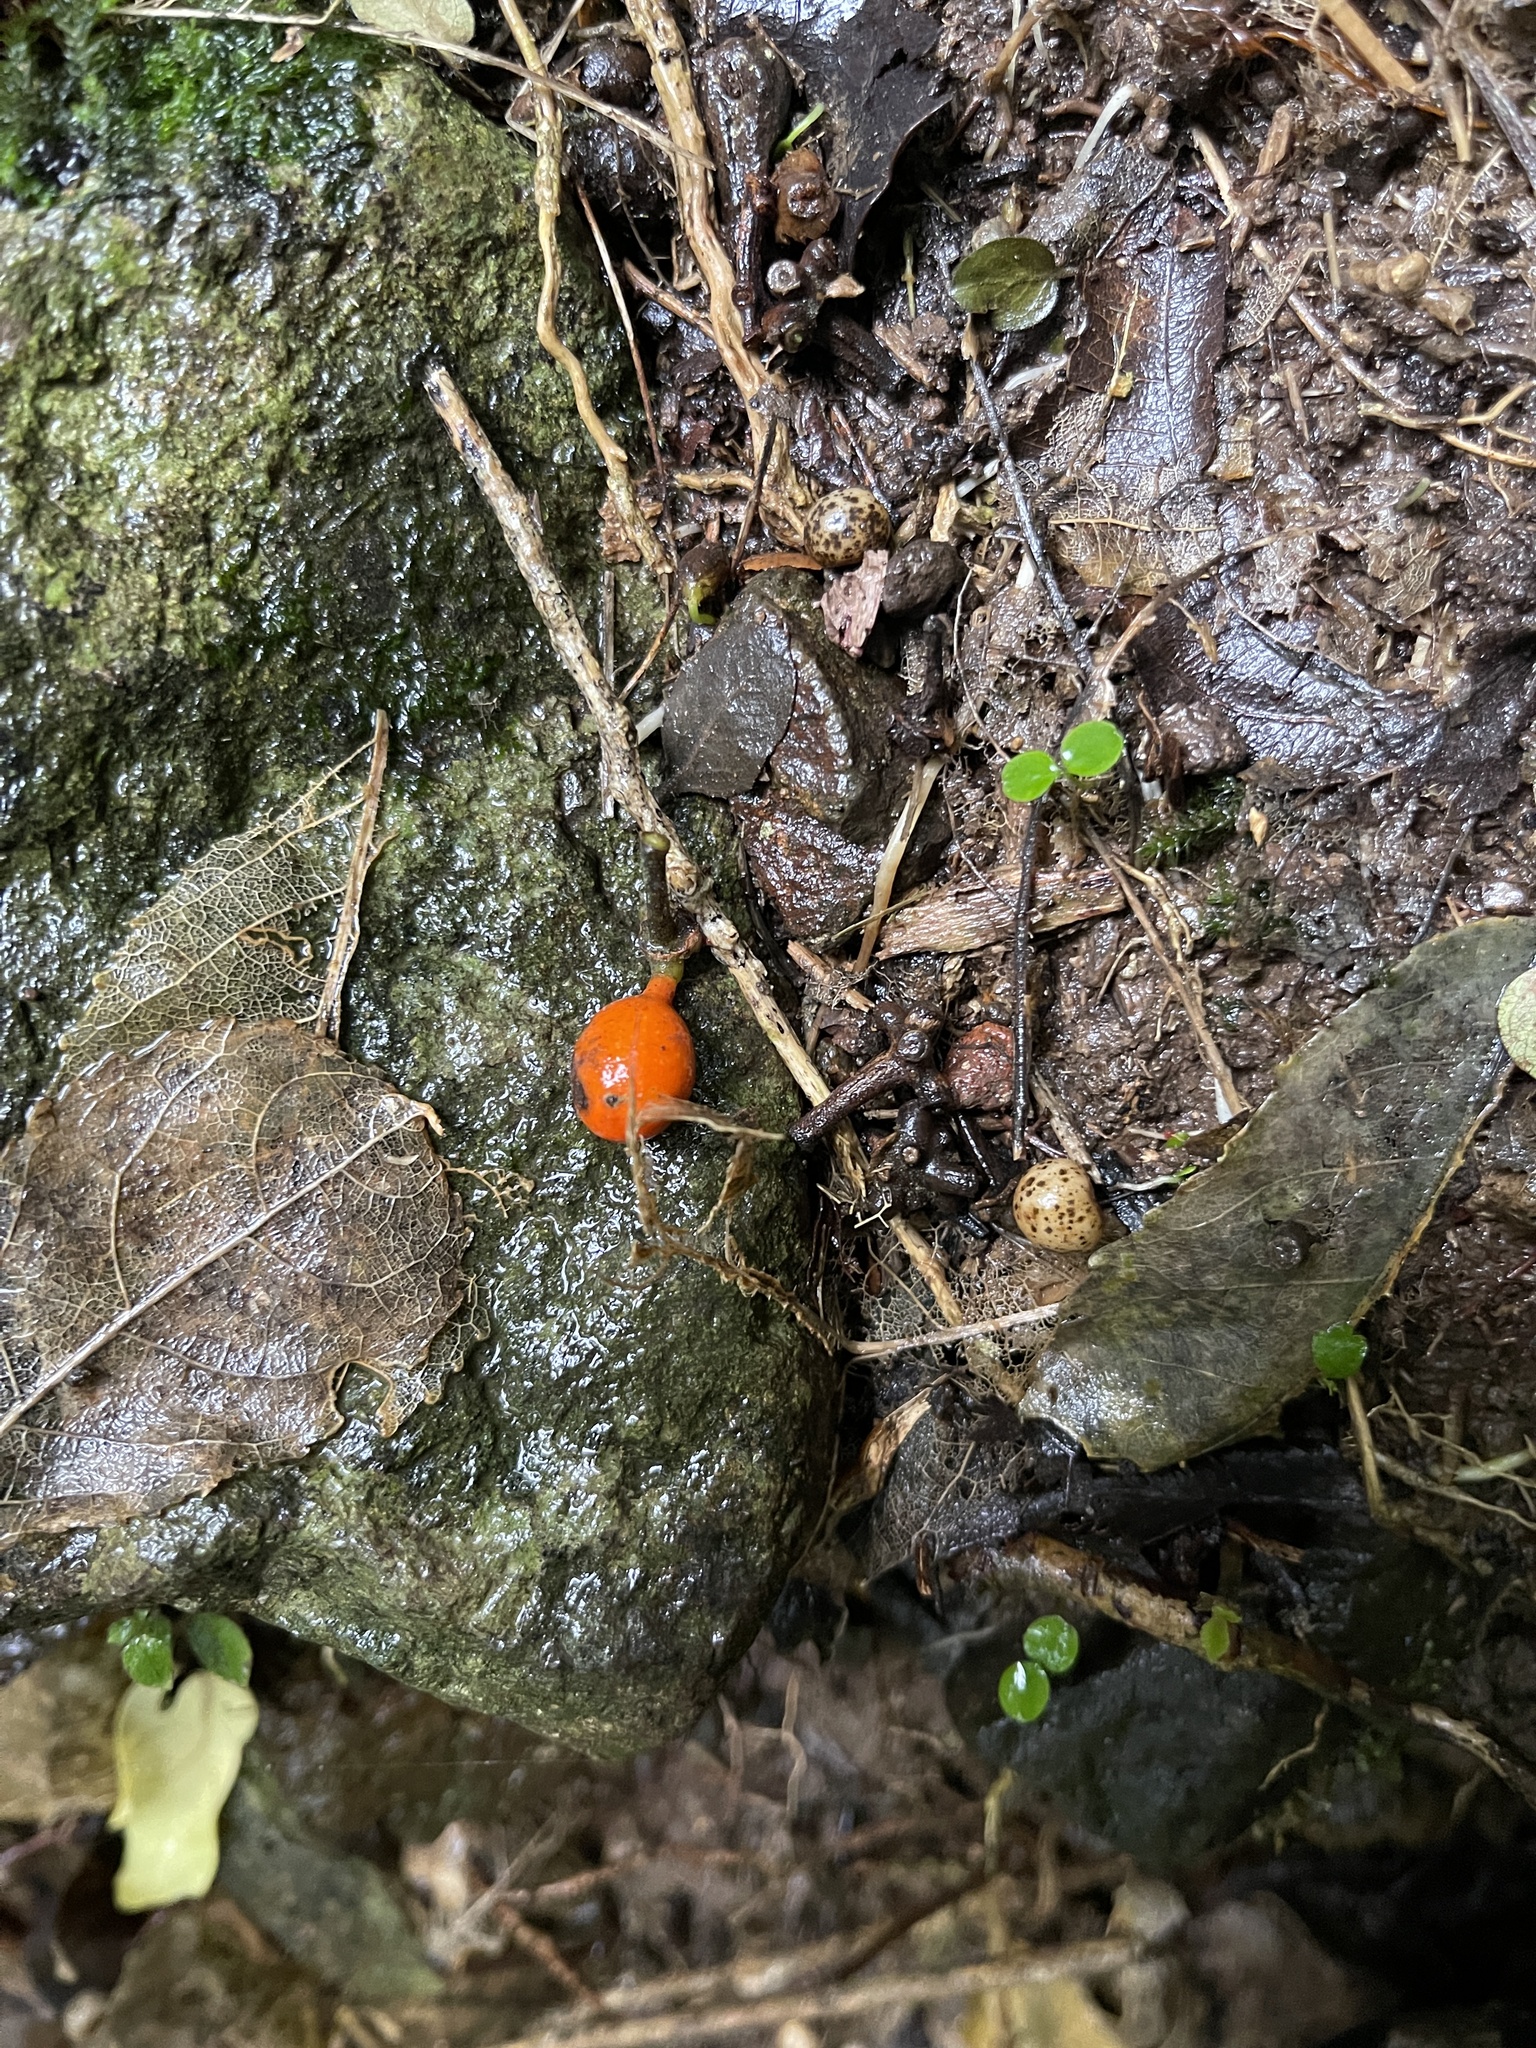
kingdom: Plantae
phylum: Tracheophyta
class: Magnoliopsida
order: Laurales
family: Monimiaceae
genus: Hedycarya
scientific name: Hedycarya arborea
